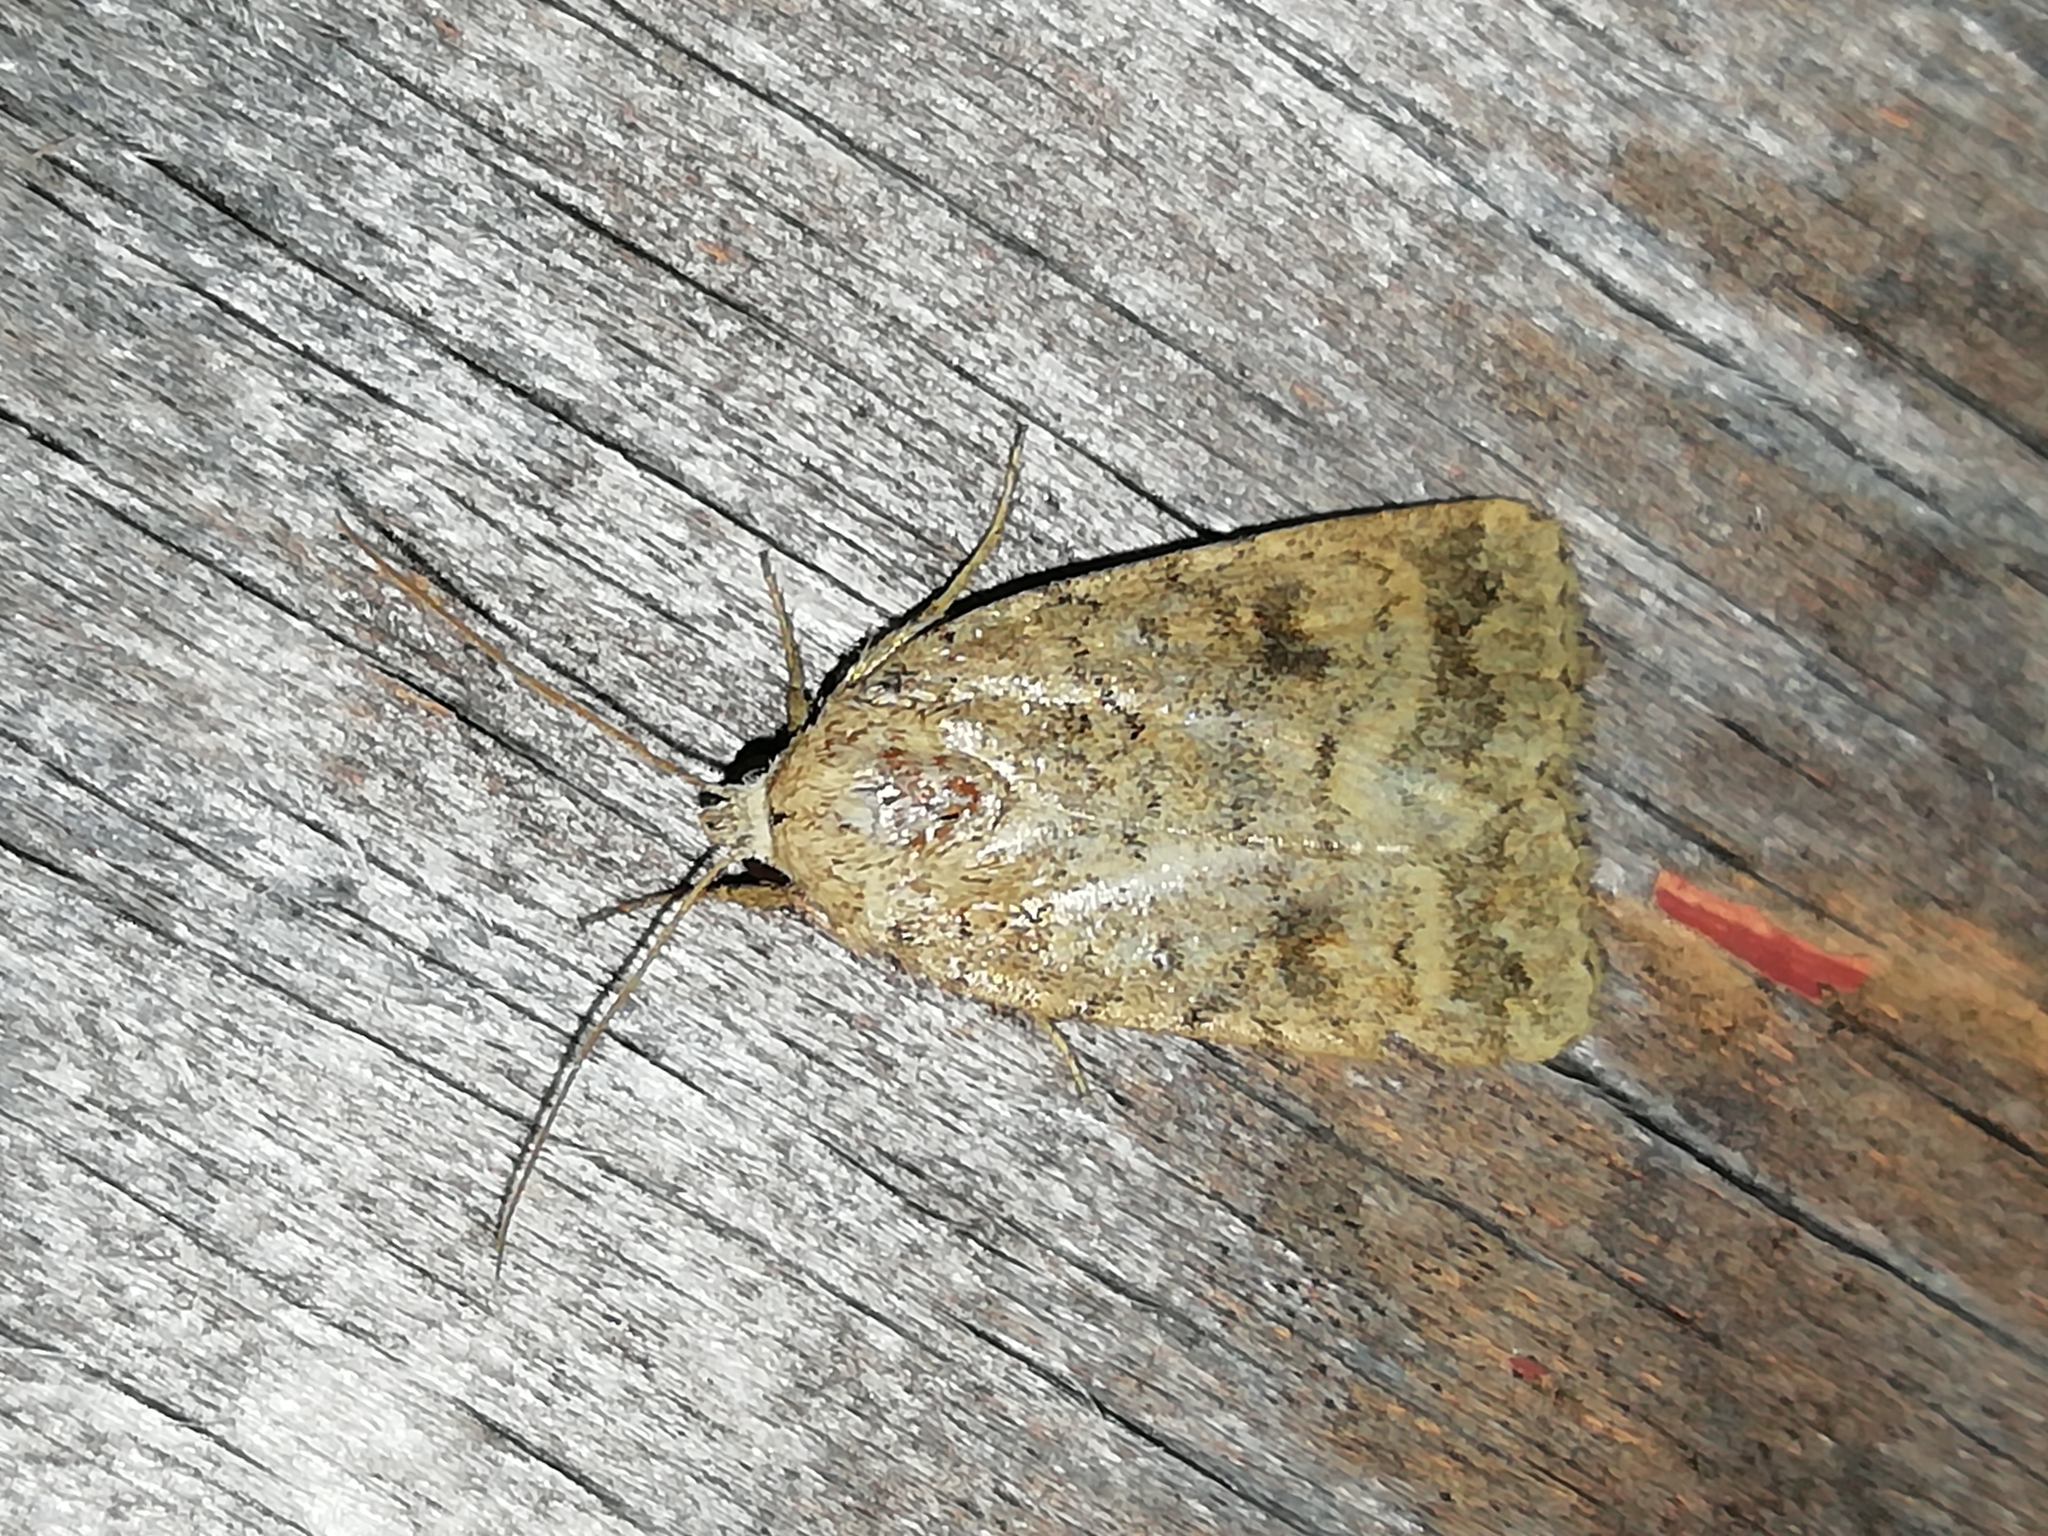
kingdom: Animalia
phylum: Arthropoda
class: Insecta
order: Lepidoptera
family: Noctuidae
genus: Caradrina
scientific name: Caradrina morpheus
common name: Mottled rustic
